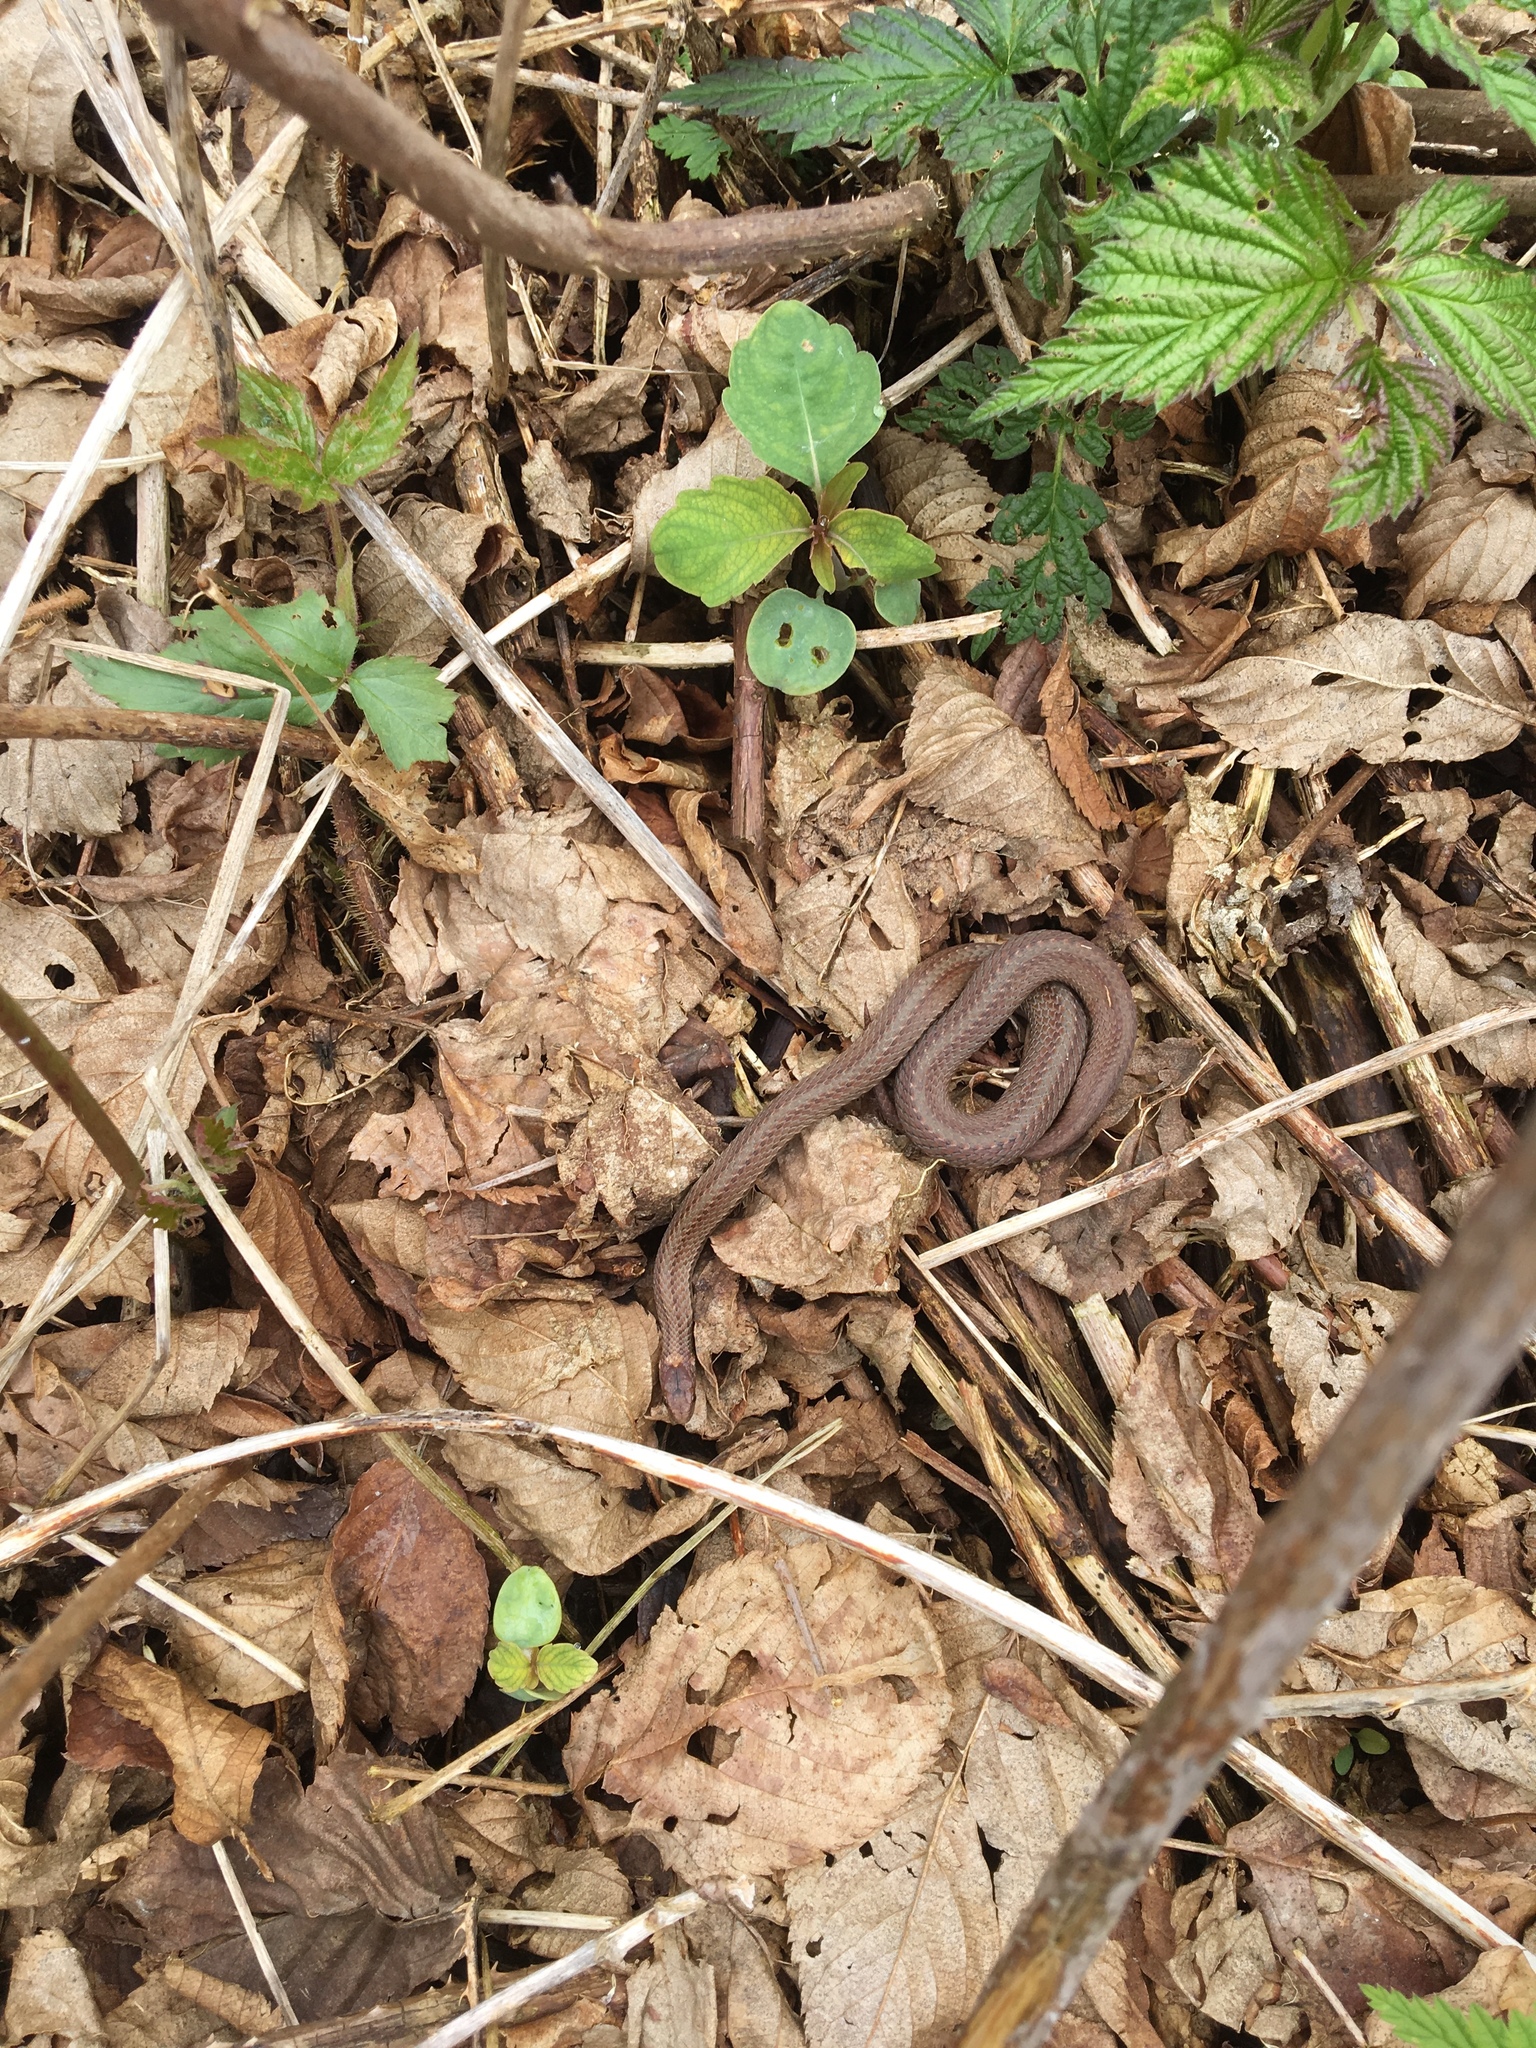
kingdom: Animalia
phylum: Chordata
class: Squamata
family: Colubridae
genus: Storeria
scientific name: Storeria occipitomaculata
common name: Redbelly snake
